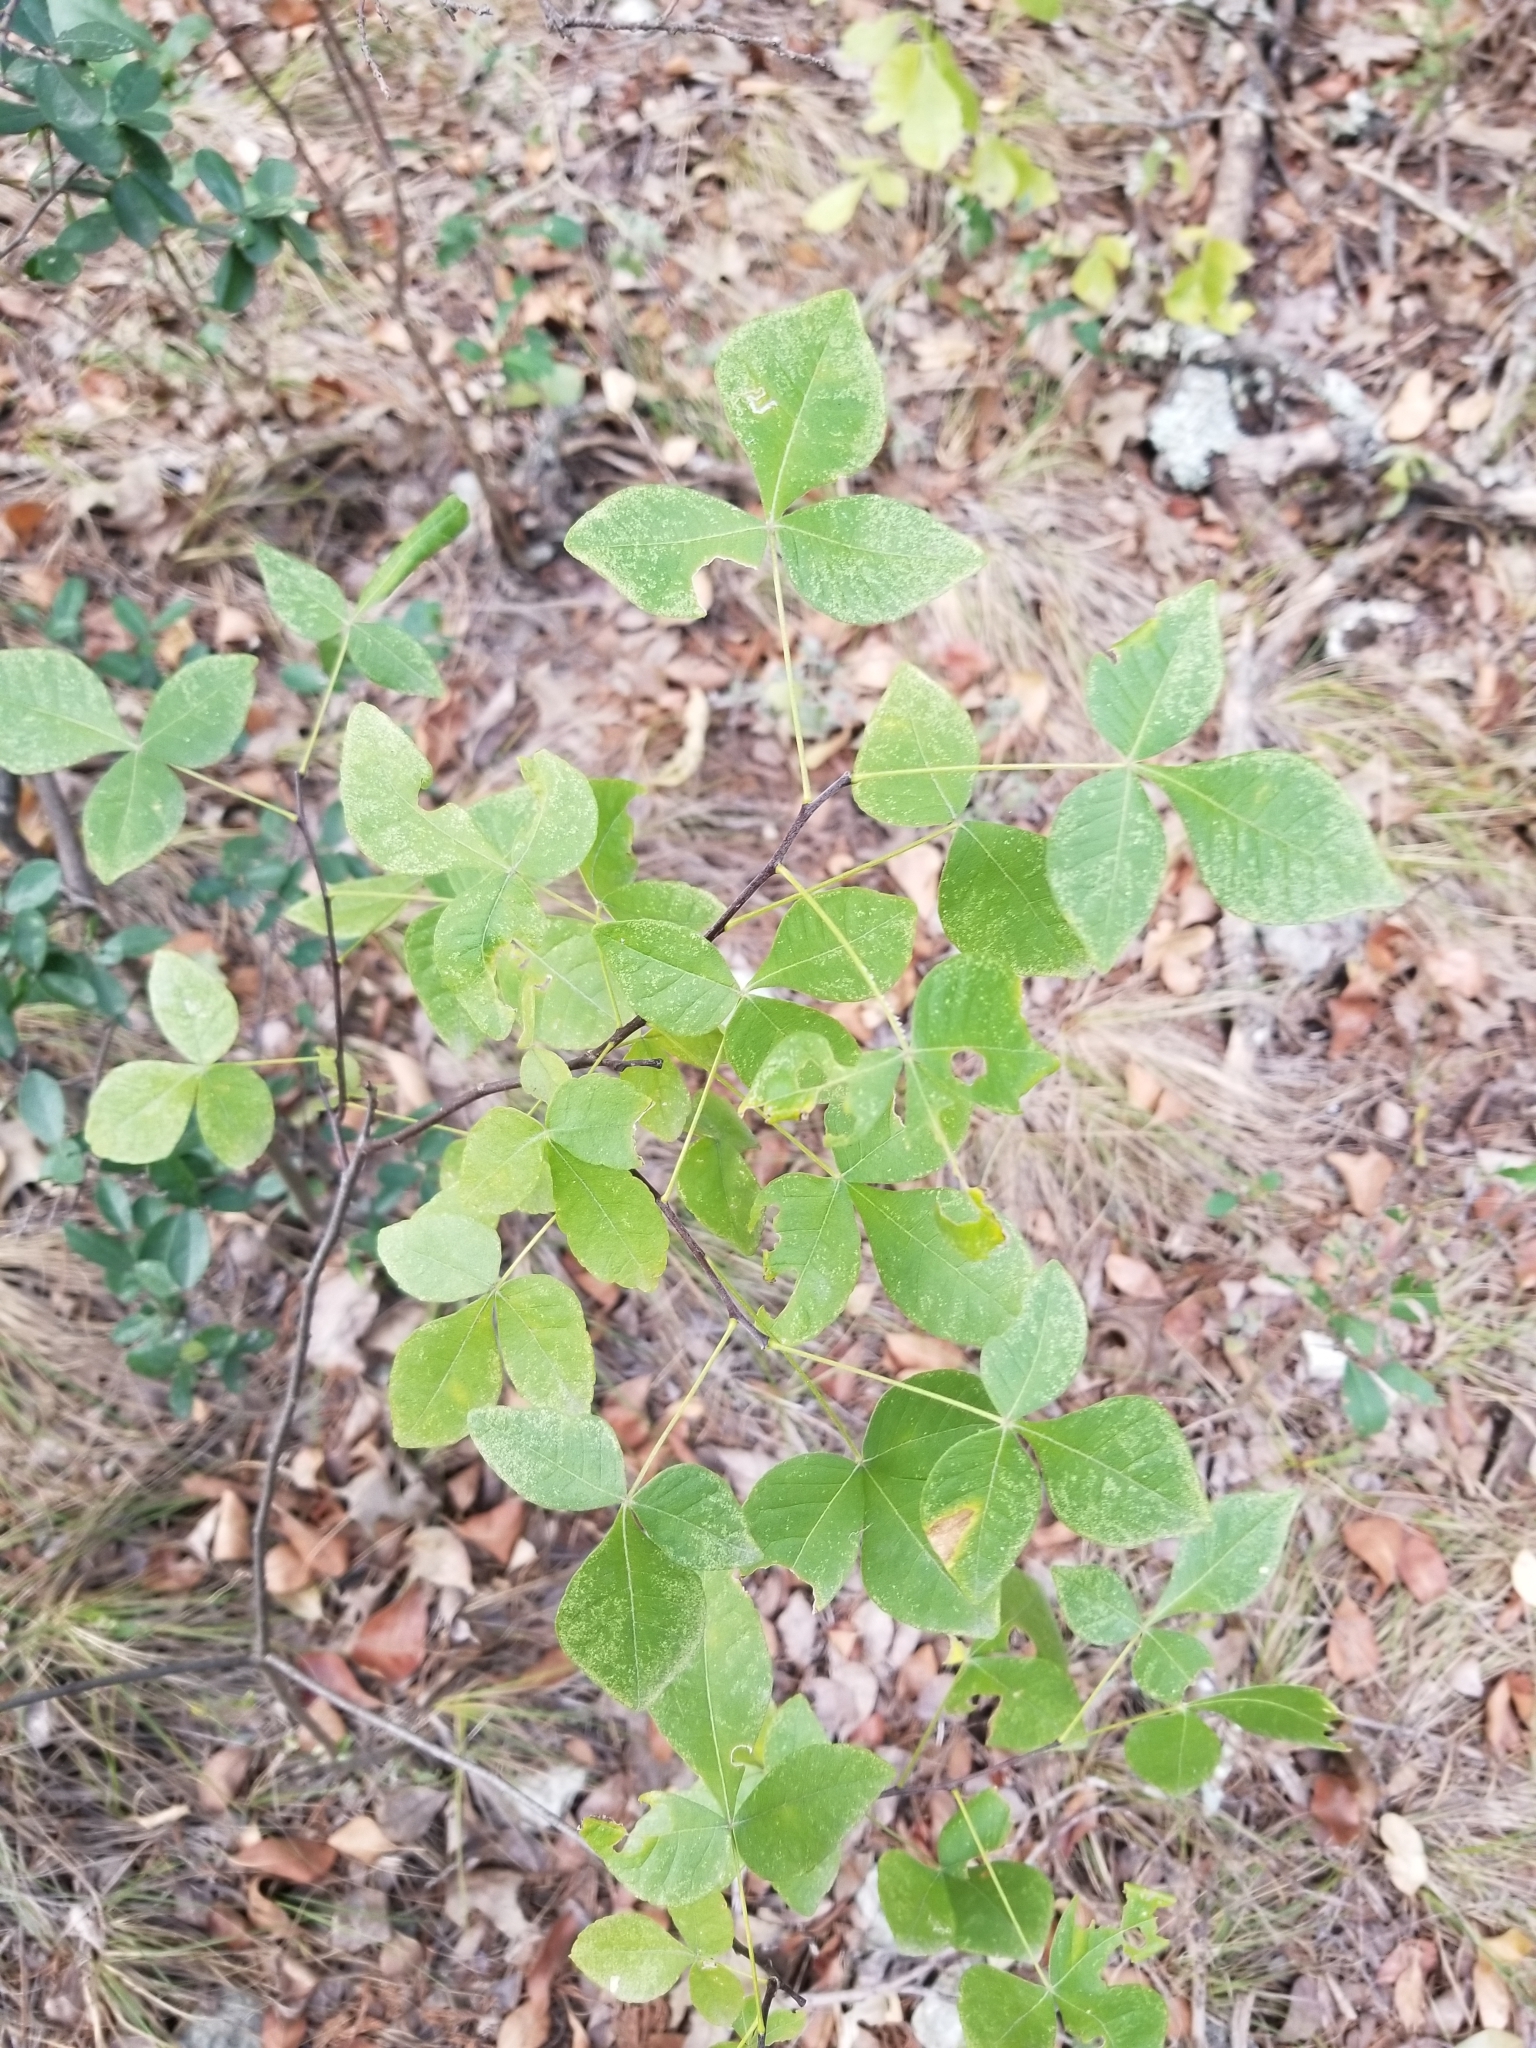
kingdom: Plantae
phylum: Tracheophyta
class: Magnoliopsida
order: Sapindales
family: Rutaceae
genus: Ptelea
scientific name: Ptelea trifoliata
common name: Common hop-tree
